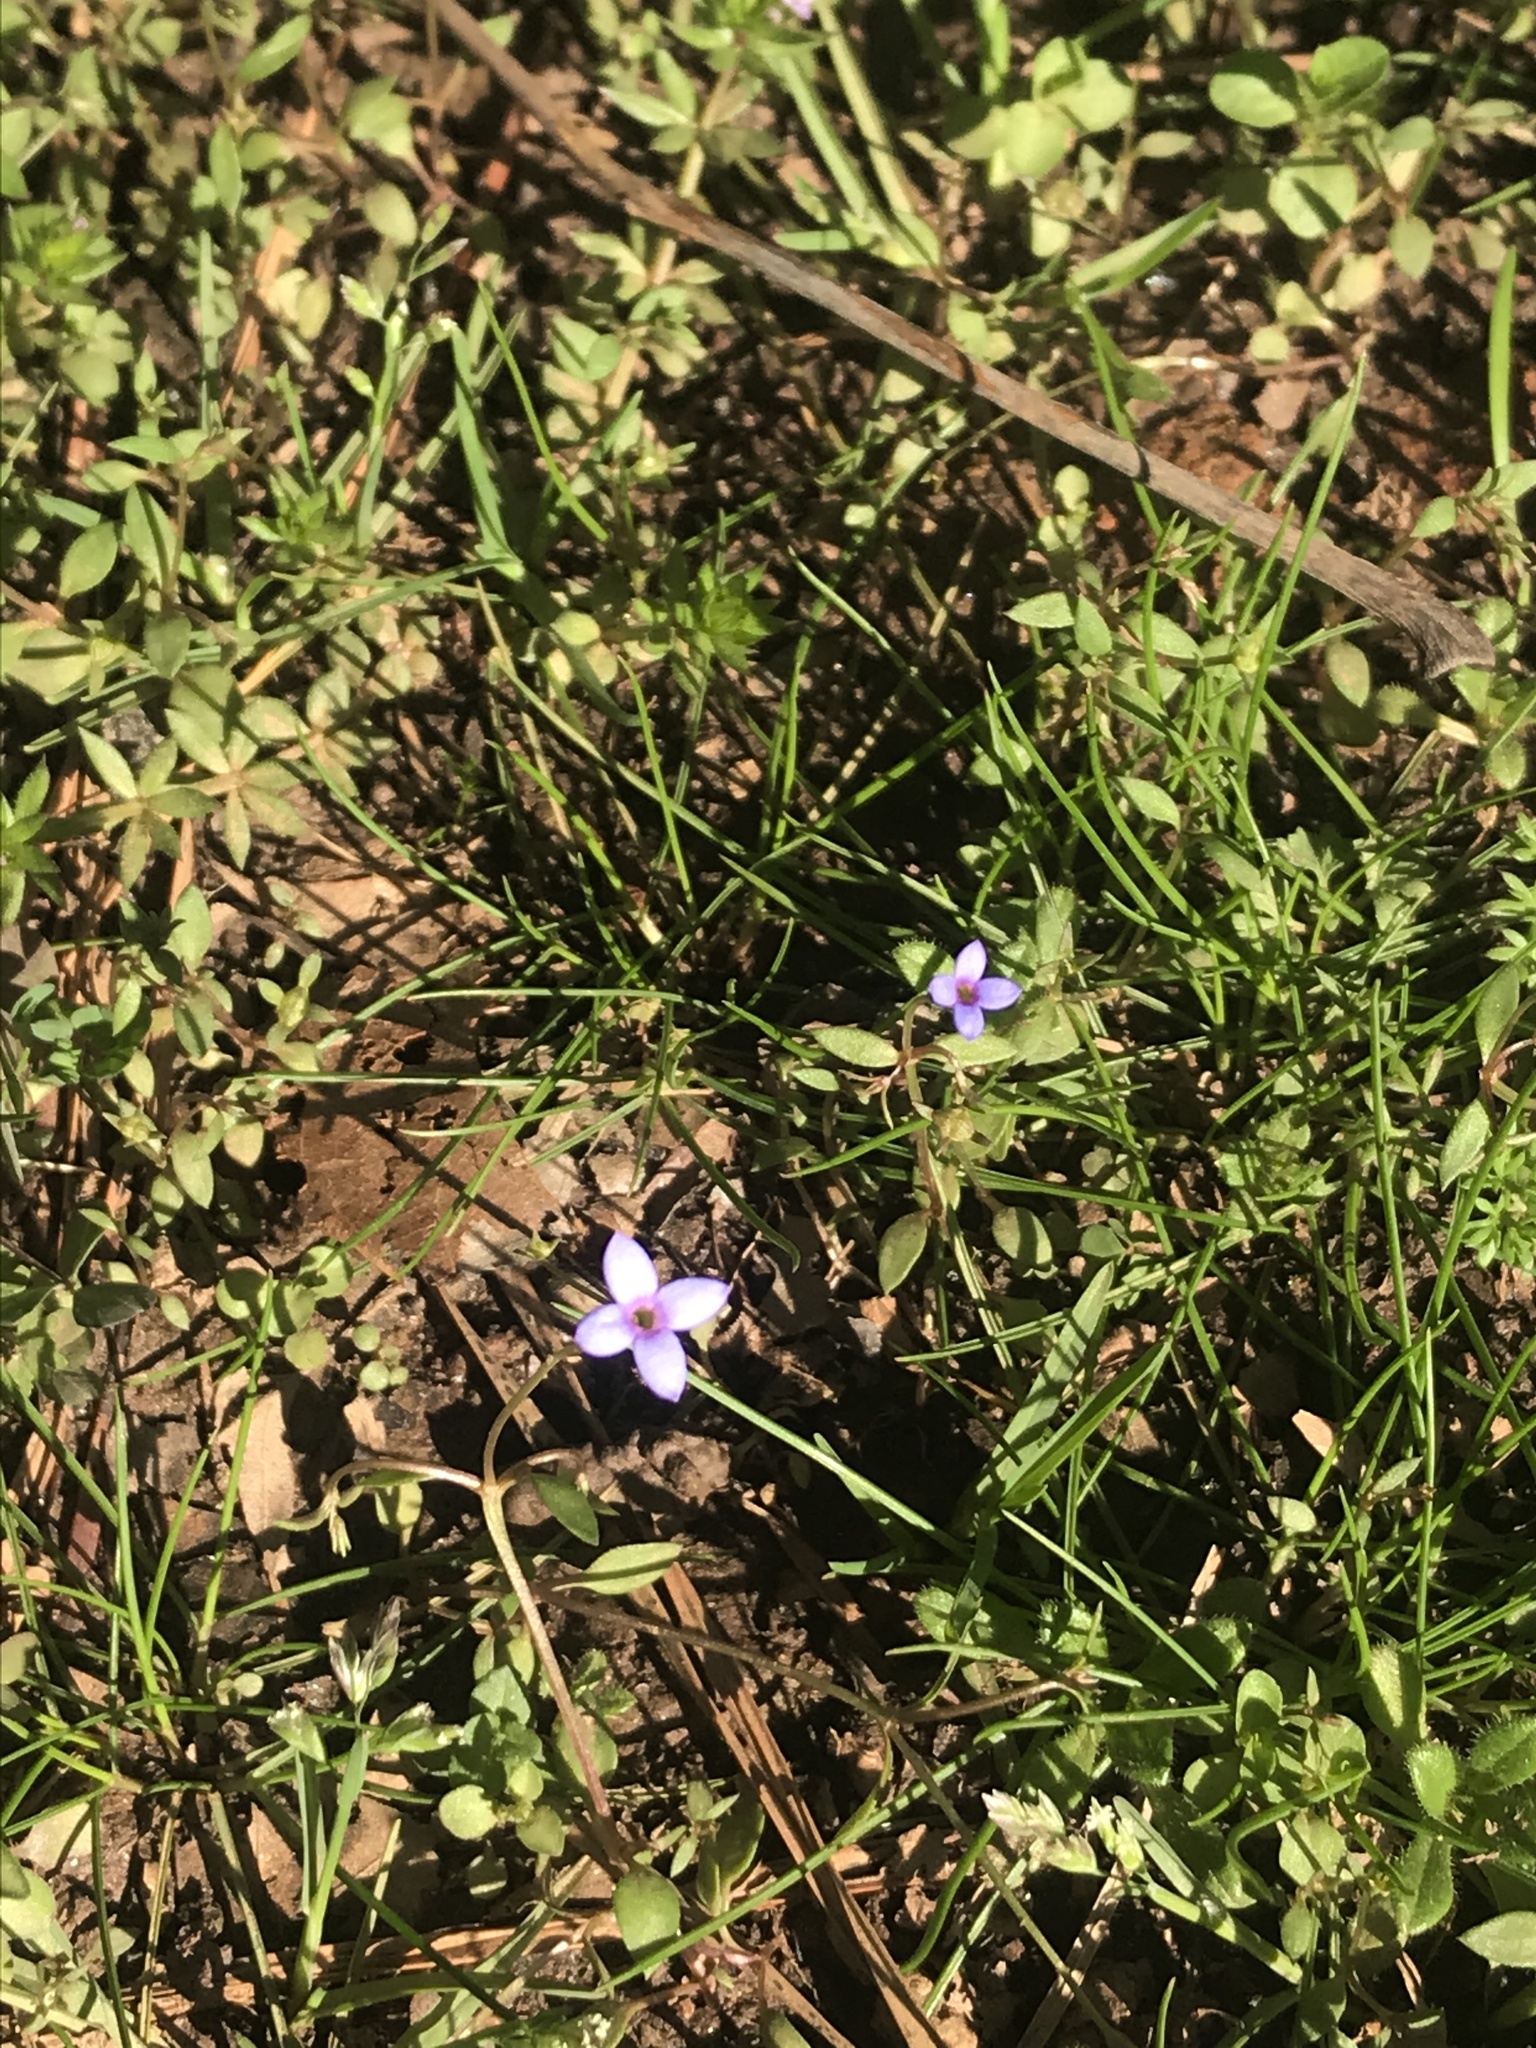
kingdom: Plantae
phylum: Tracheophyta
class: Magnoliopsida
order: Gentianales
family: Rubiaceae
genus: Houstonia
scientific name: Houstonia pusilla
